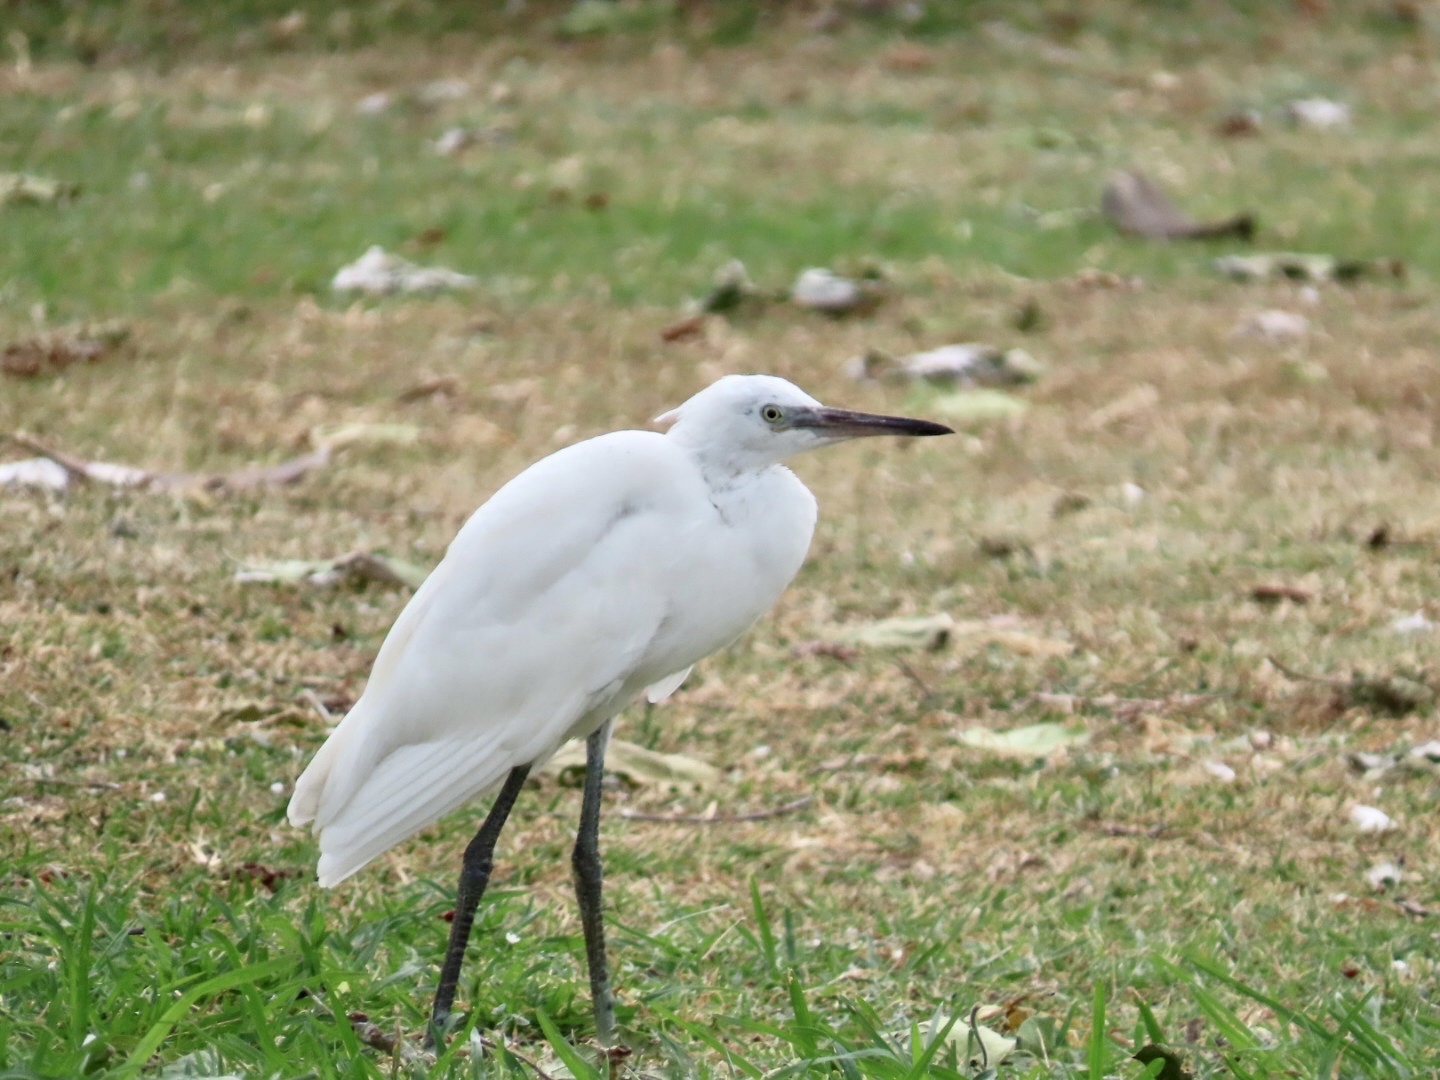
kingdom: Animalia
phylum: Chordata
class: Aves
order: Pelecaniformes
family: Ardeidae
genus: Egretta
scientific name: Egretta garzetta
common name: Little egret
